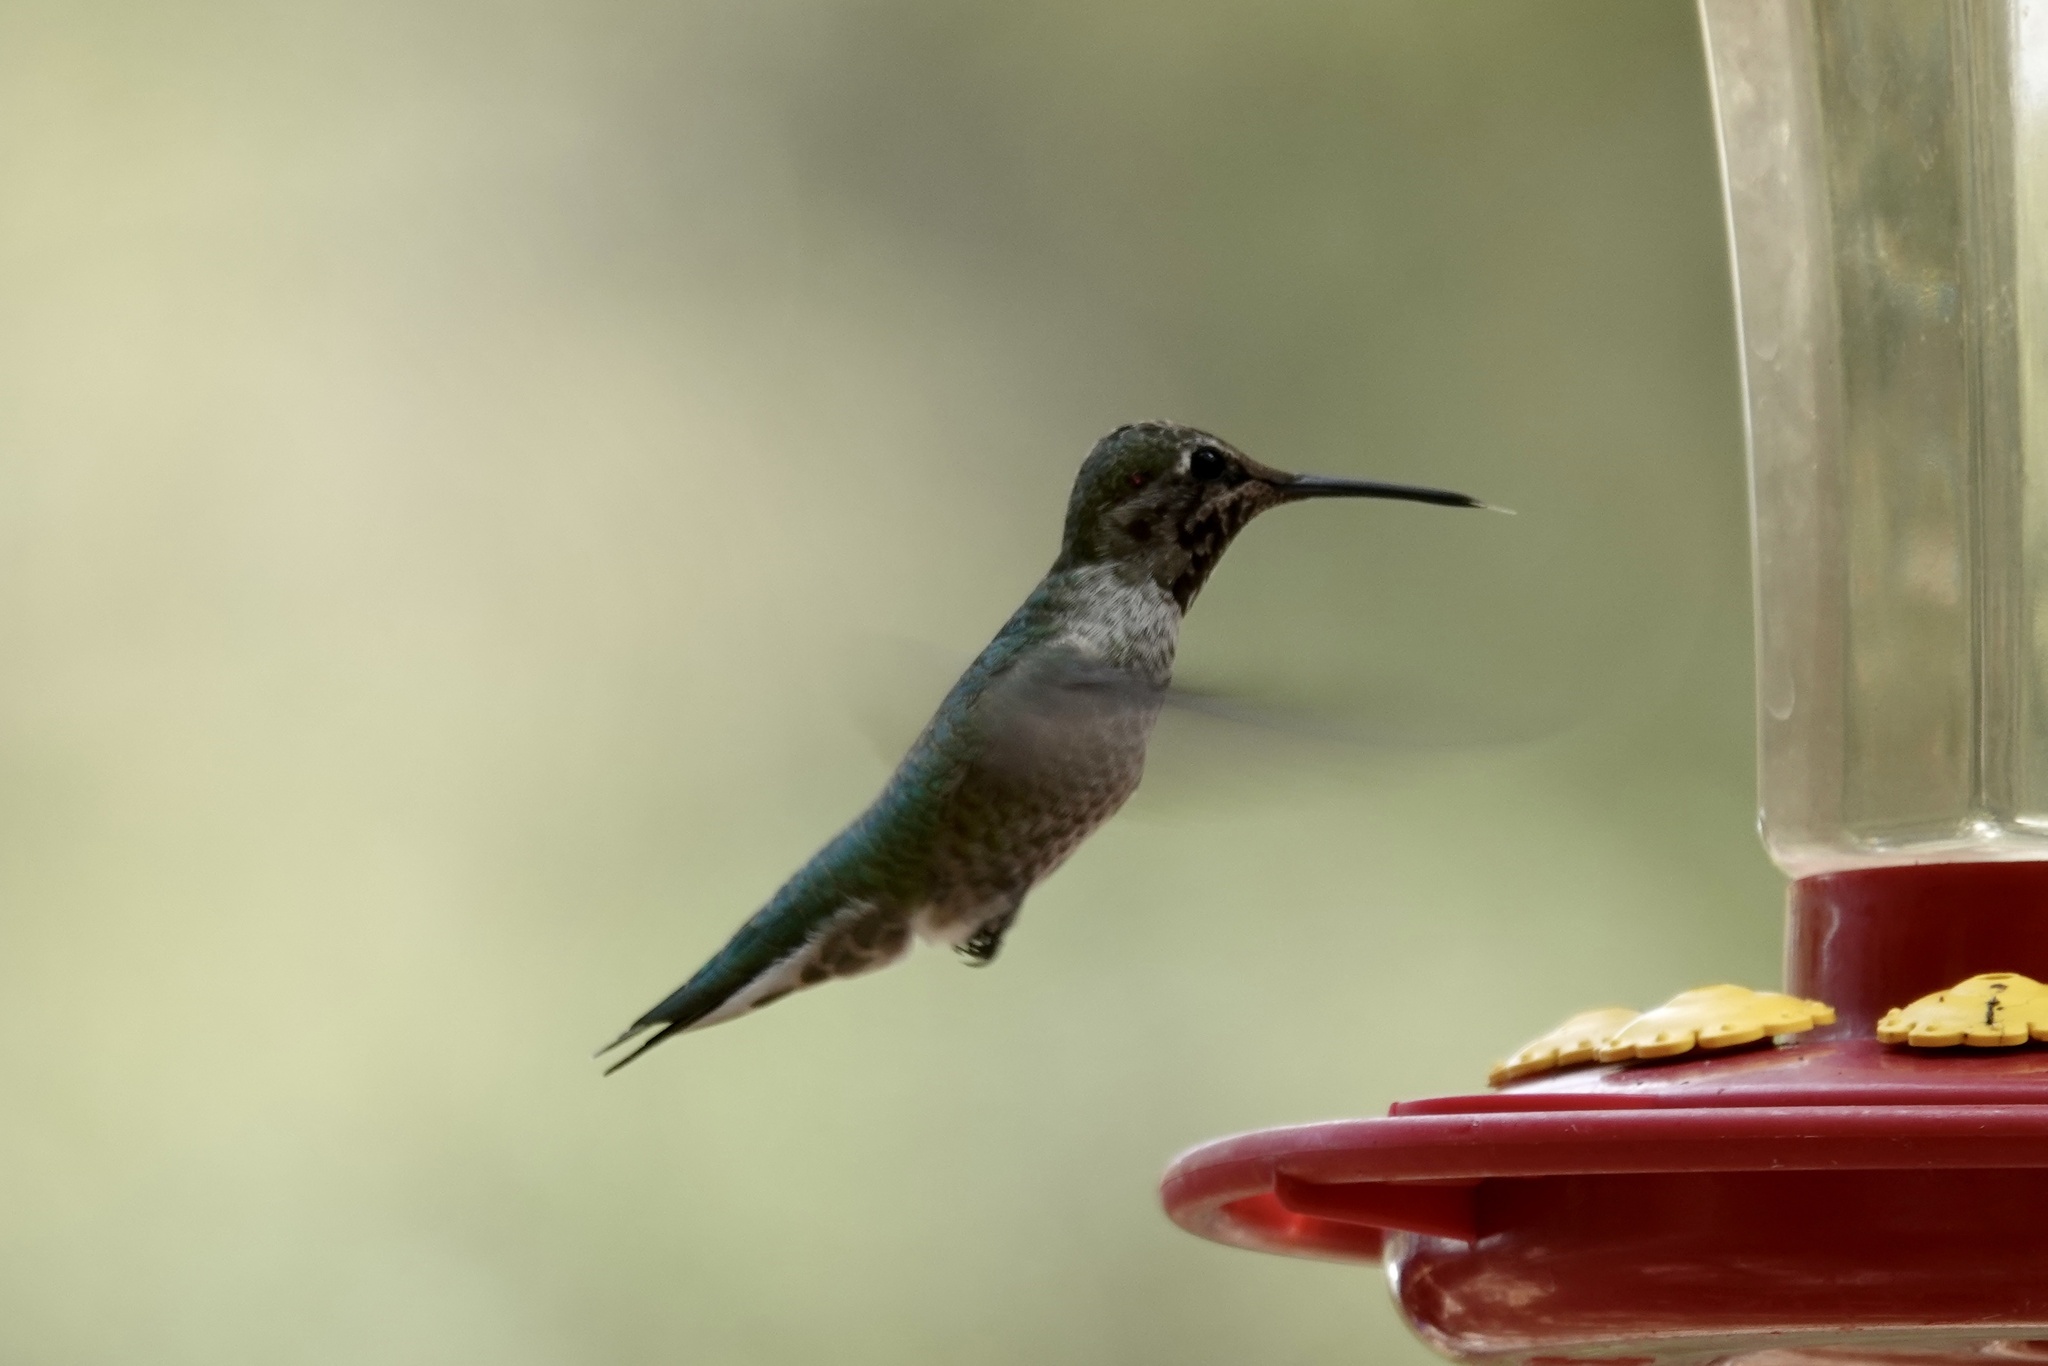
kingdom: Animalia
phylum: Chordata
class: Aves
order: Apodiformes
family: Trochilidae
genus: Calypte
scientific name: Calypte anna
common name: Anna's hummingbird
